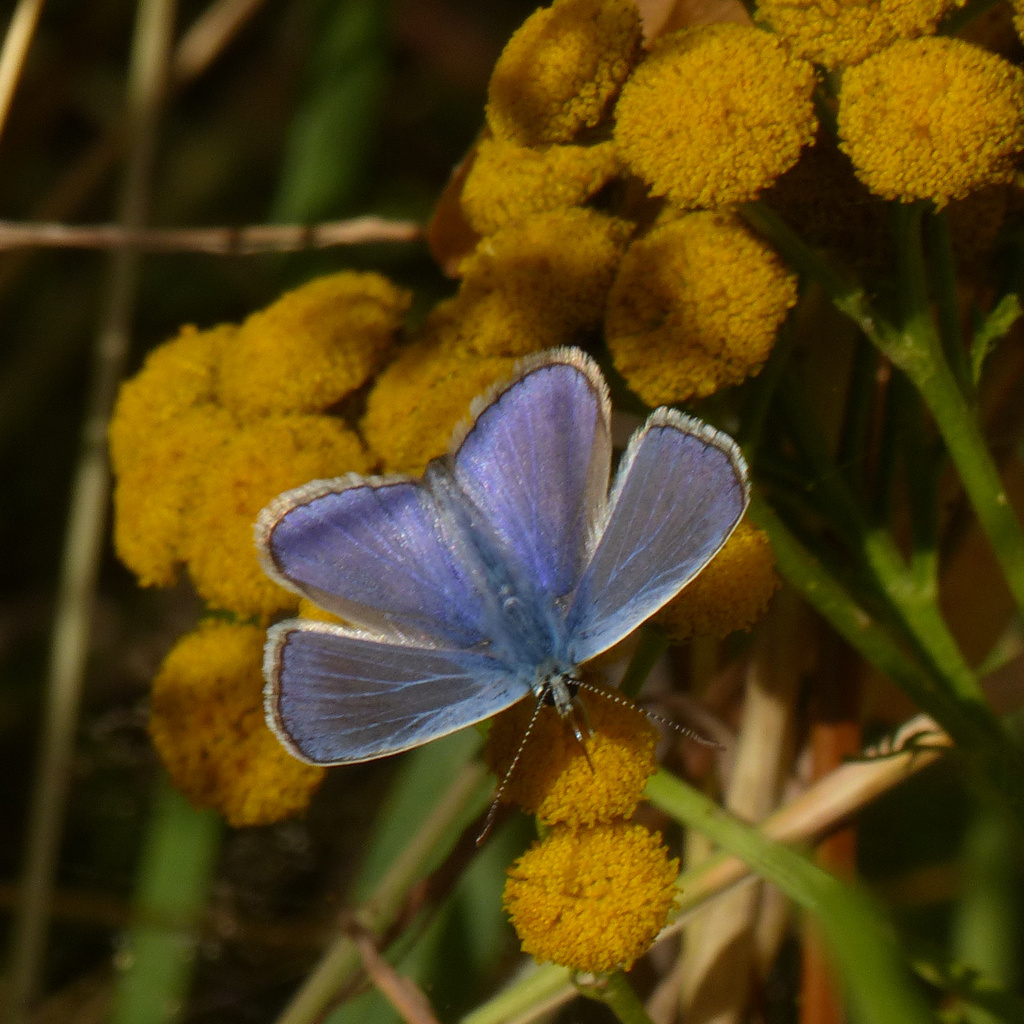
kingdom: Animalia
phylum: Arthropoda
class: Insecta
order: Lepidoptera
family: Lycaenidae
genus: Polyommatus
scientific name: Polyommatus icarus
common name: Common blue
